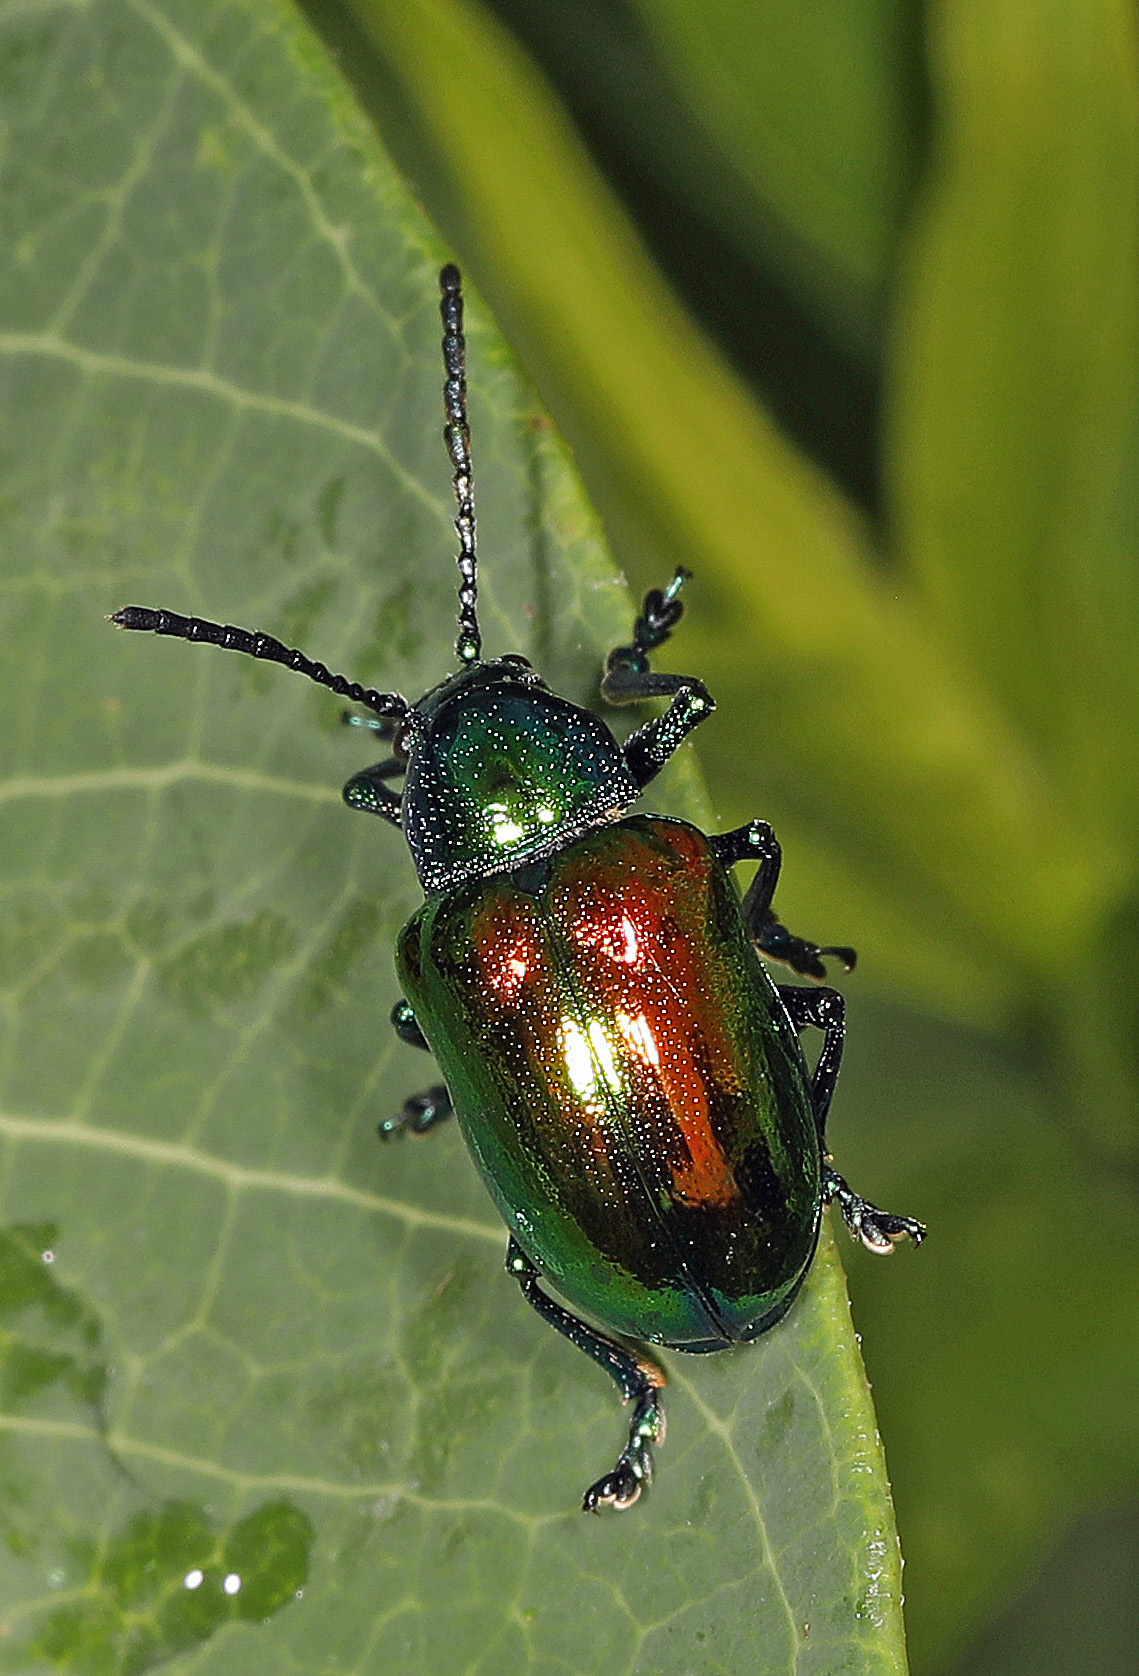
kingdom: Animalia
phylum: Arthropoda
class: Insecta
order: Coleoptera
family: Chrysomelidae
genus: Chrysochus
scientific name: Chrysochus auratus
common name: Dogbane leaf beetle
